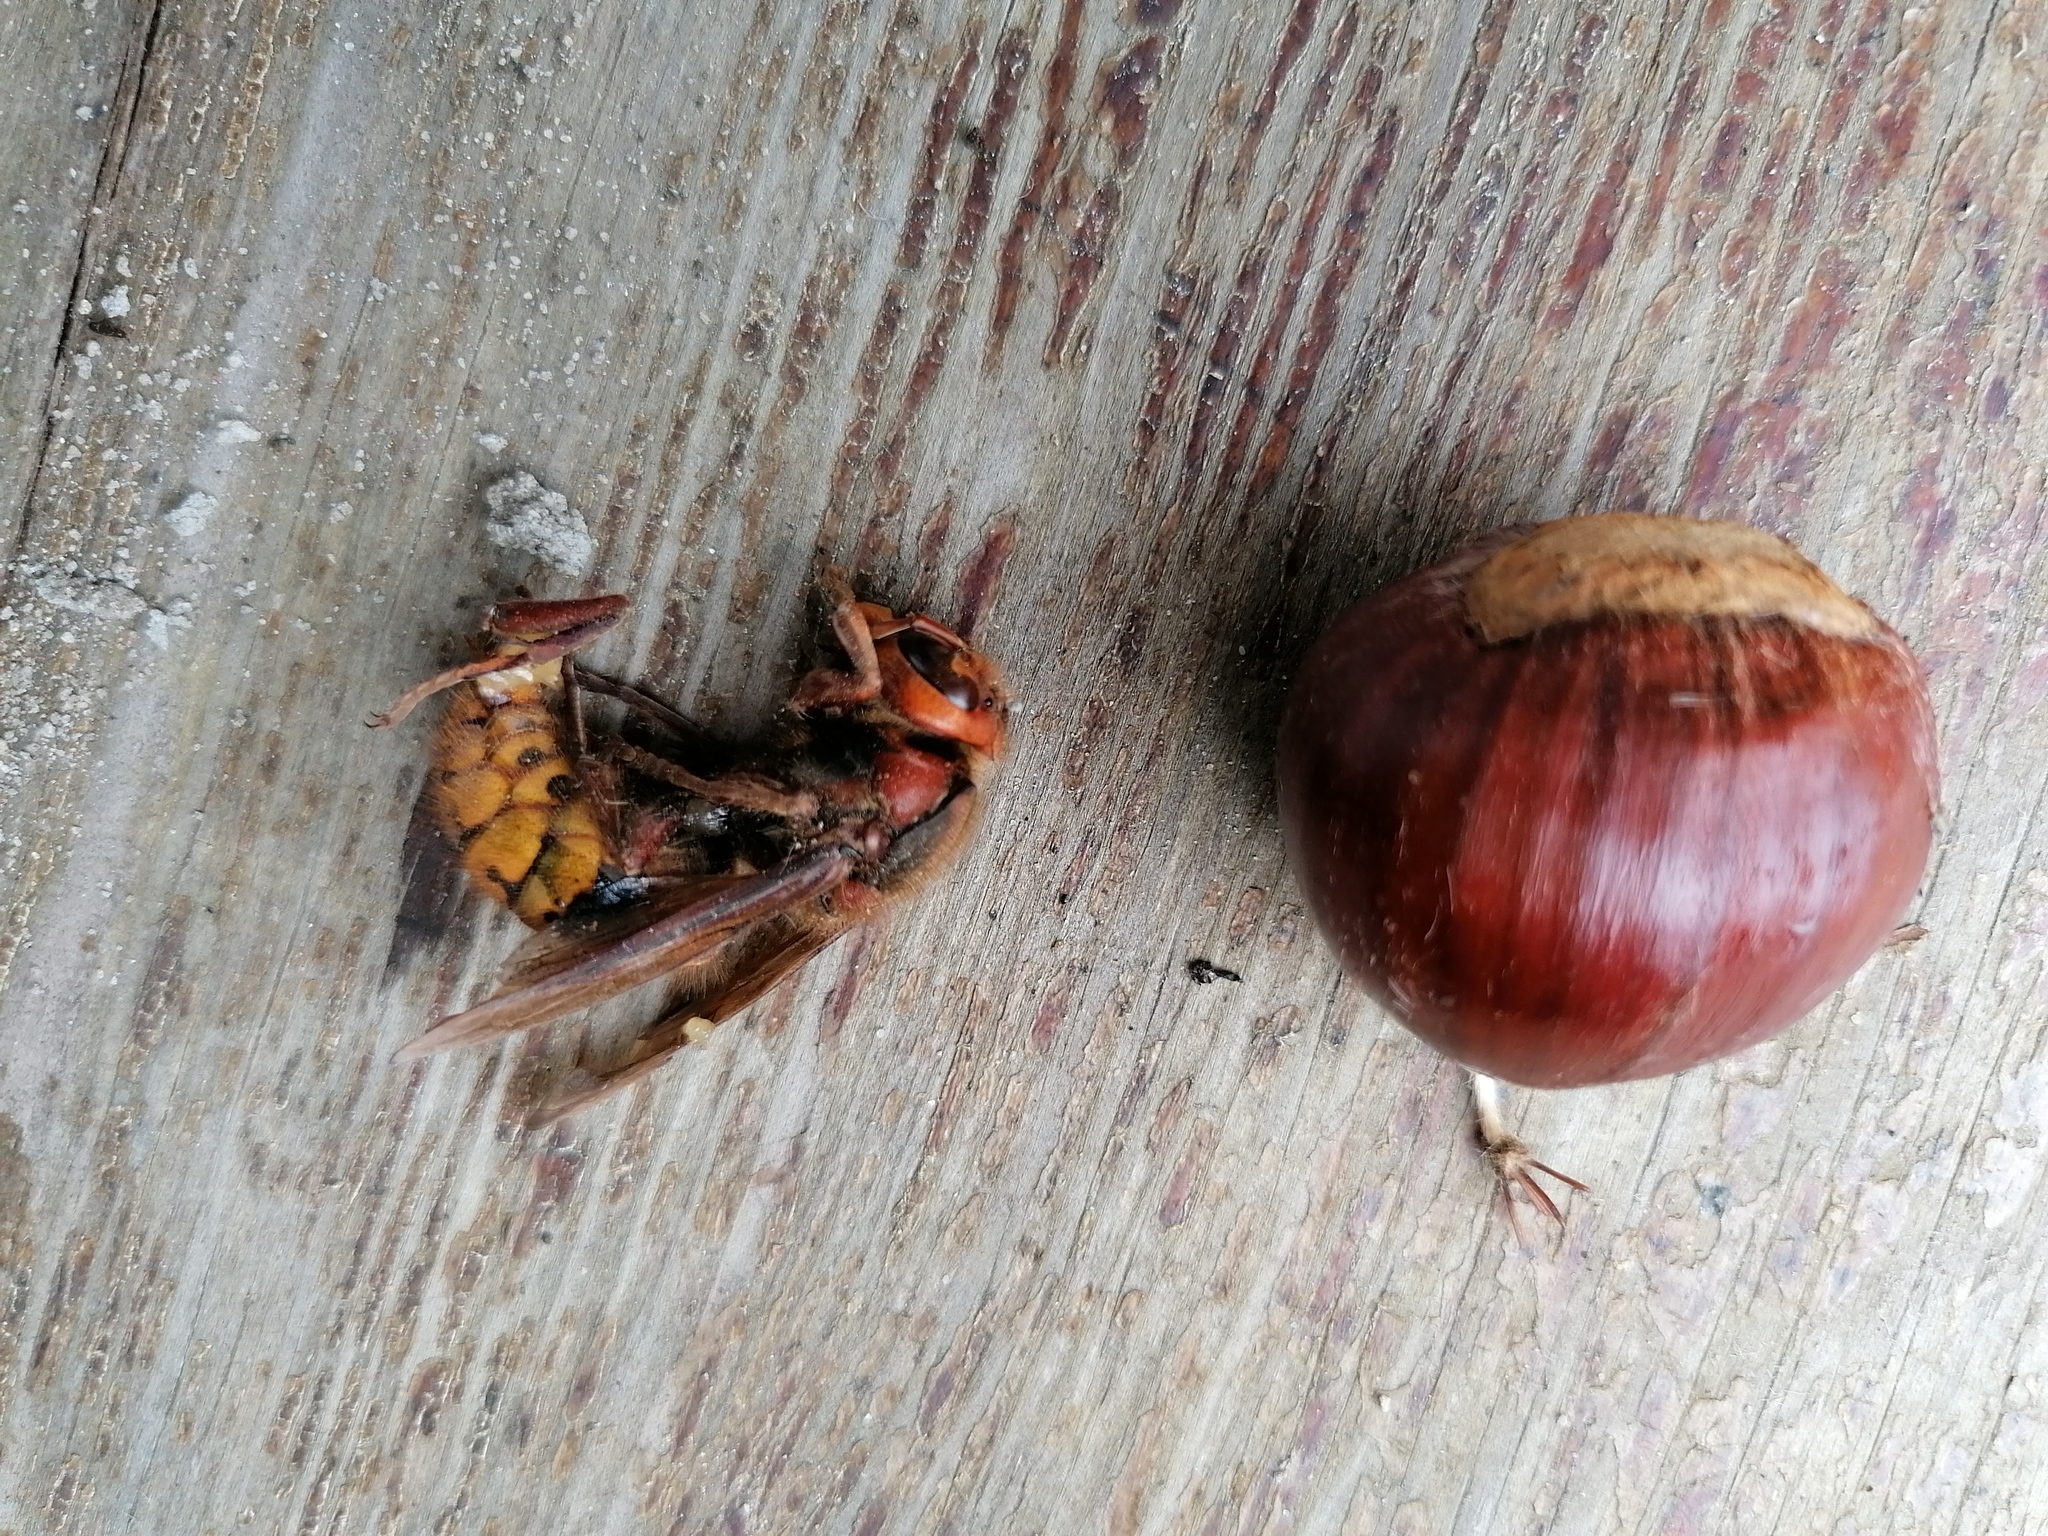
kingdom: Animalia
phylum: Arthropoda
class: Insecta
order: Hymenoptera
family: Vespidae
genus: Vespa
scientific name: Vespa crabro
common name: Hornet
